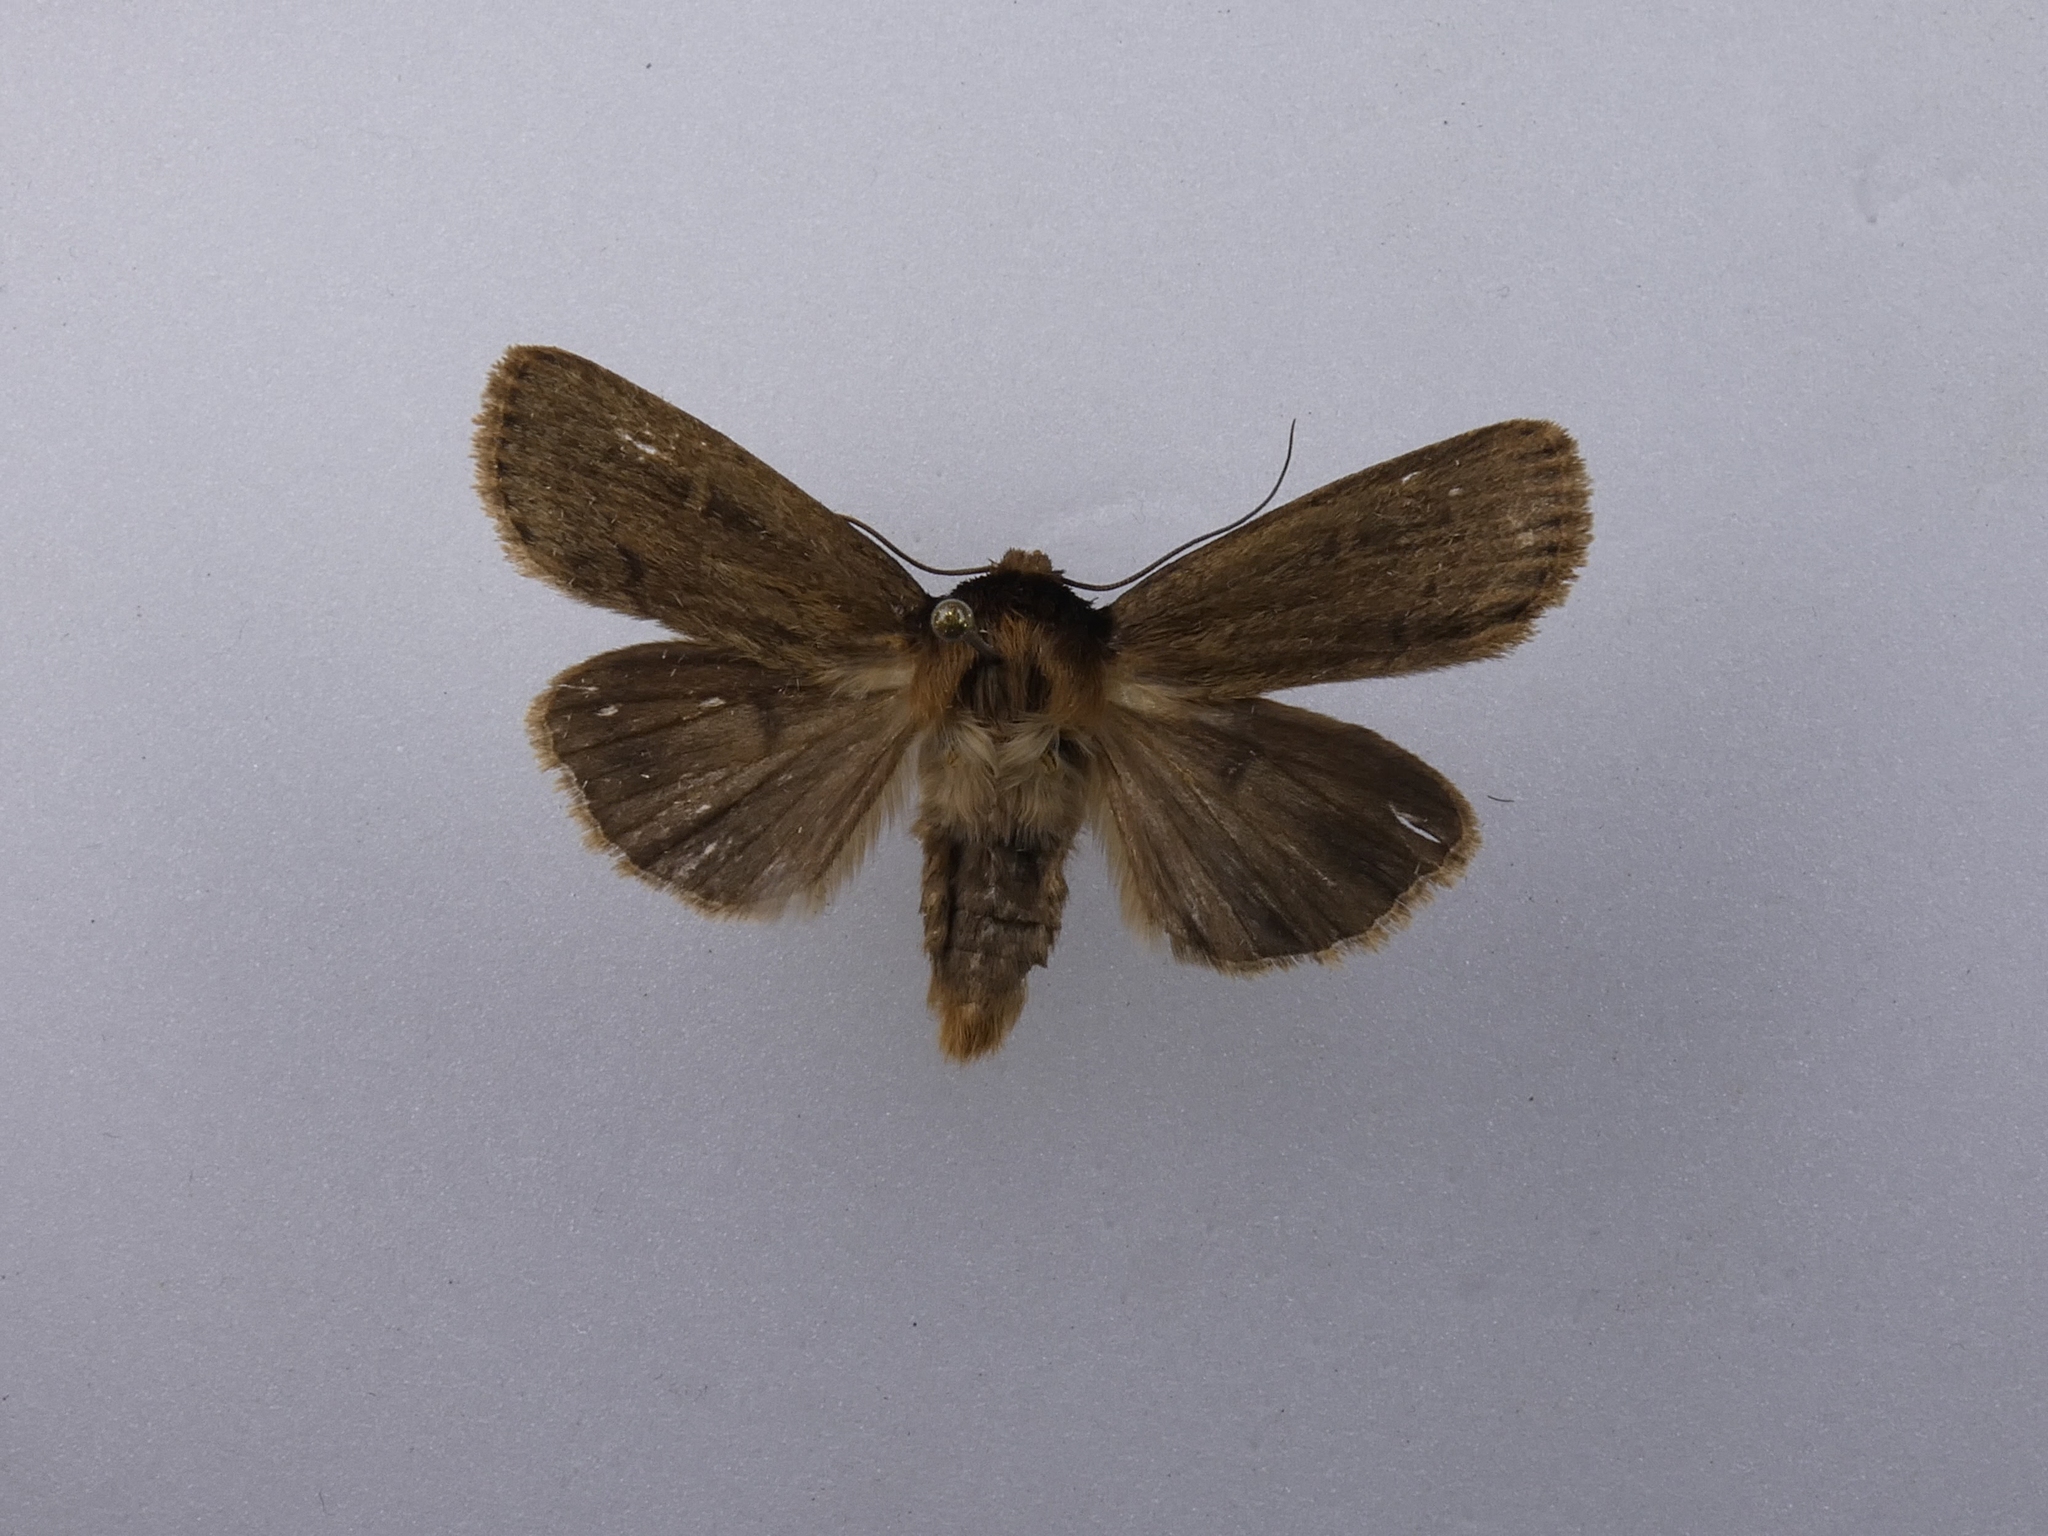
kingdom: Animalia
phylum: Arthropoda
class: Insecta
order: Lepidoptera
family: Noctuidae
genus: Bityla
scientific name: Bityla defigurata
